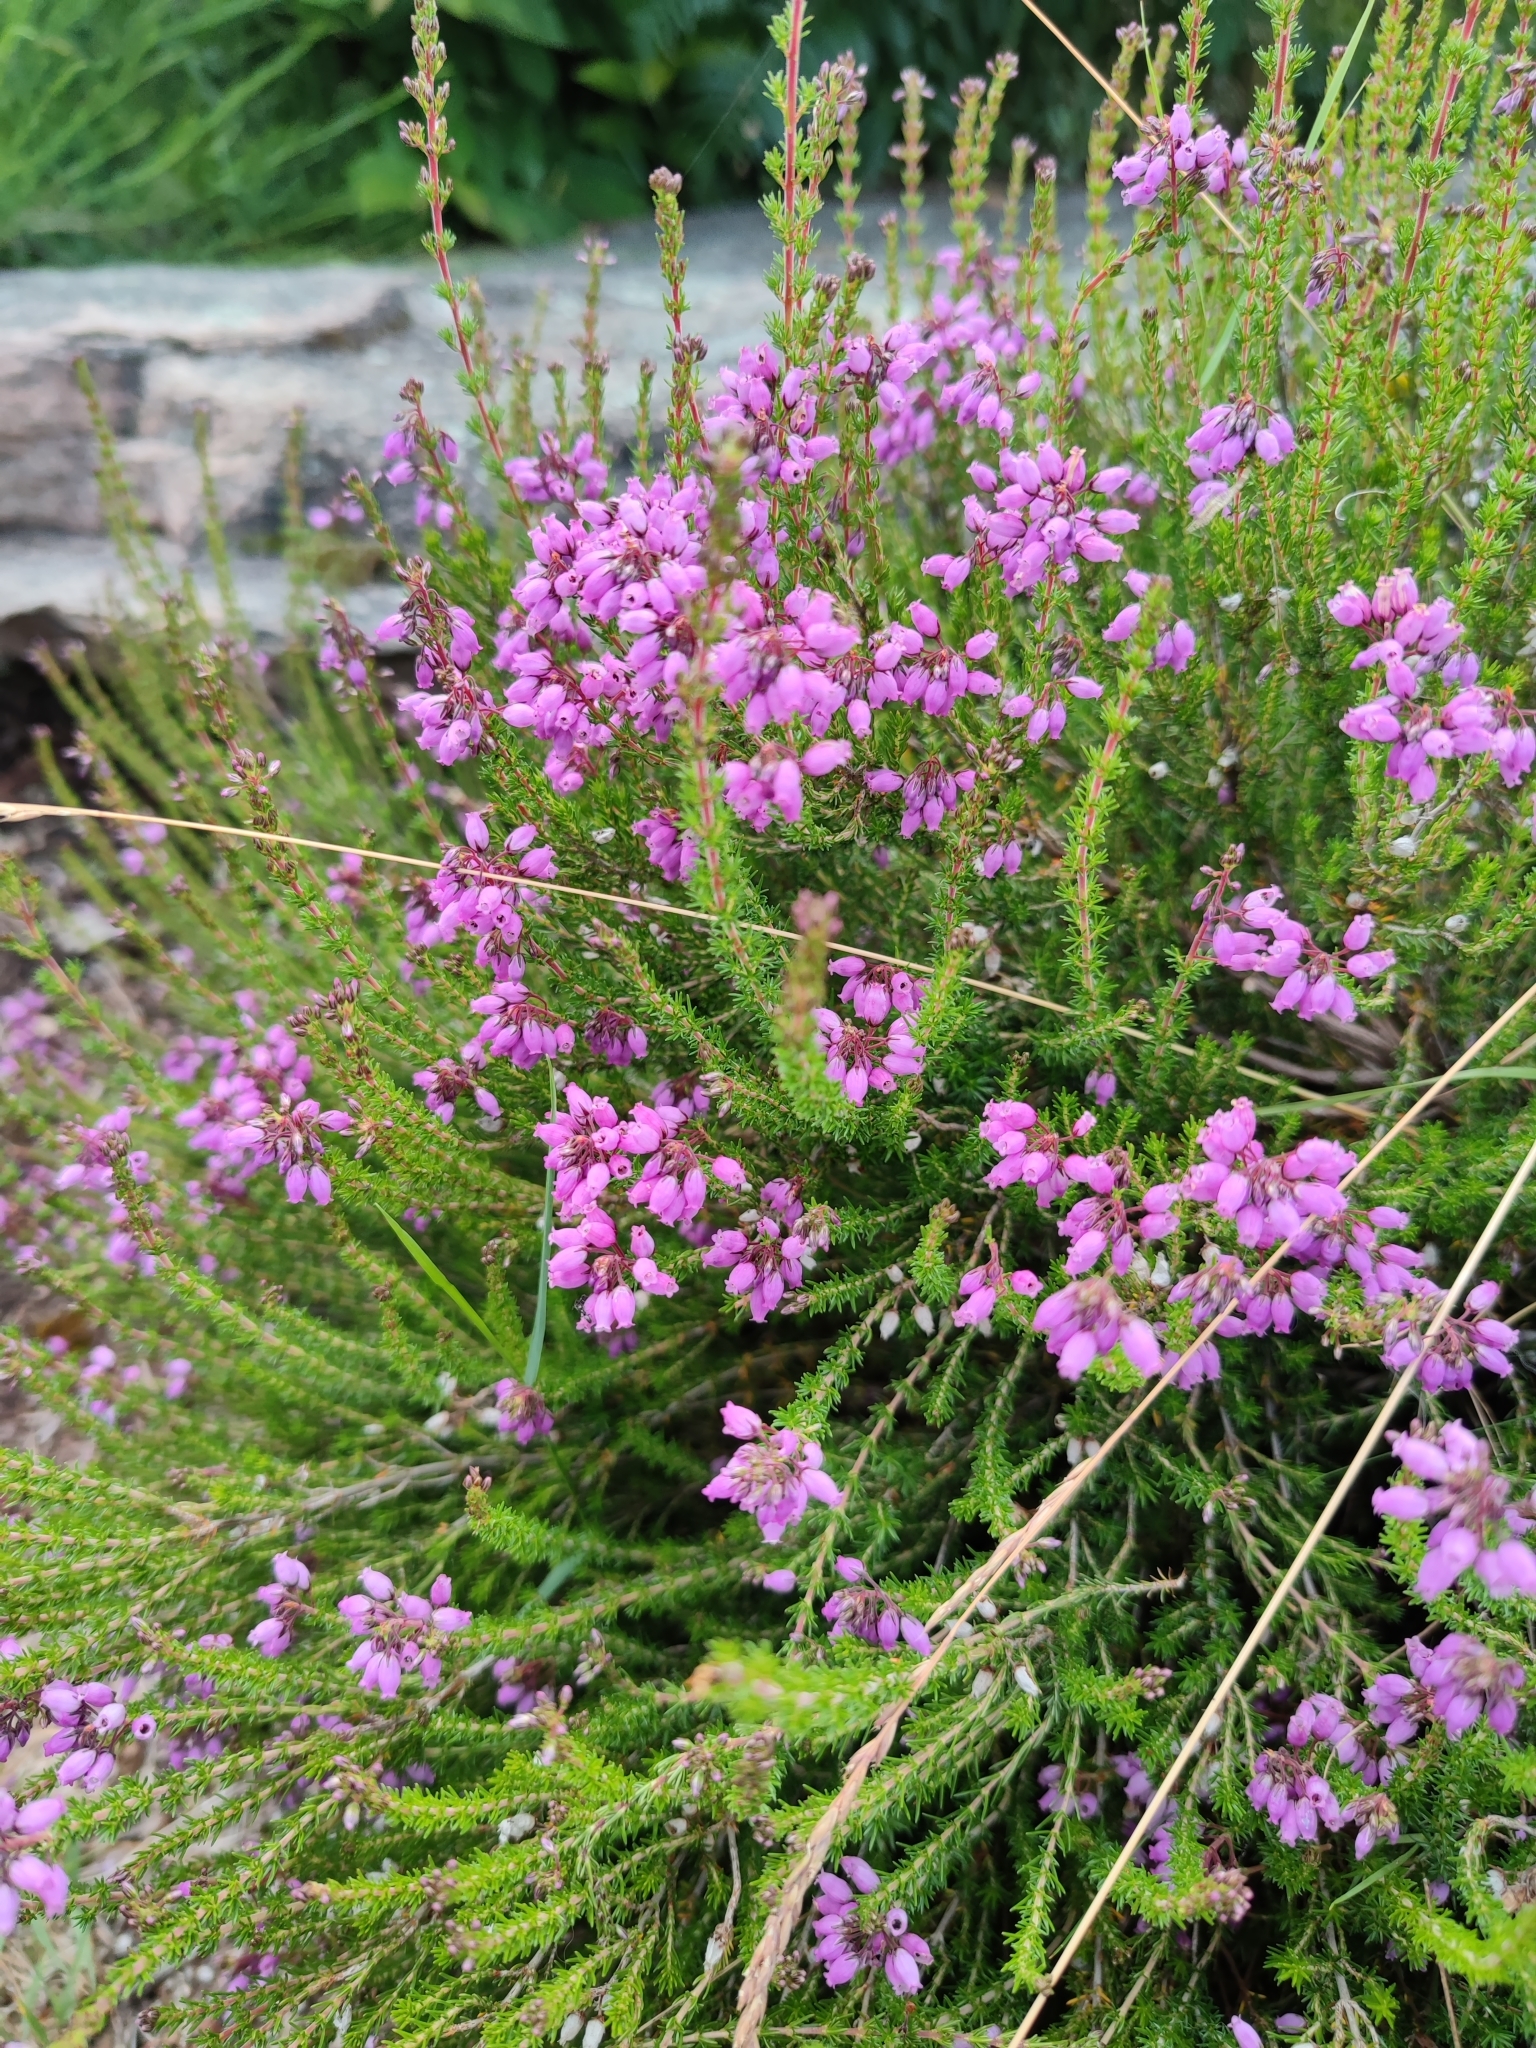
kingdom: Plantae
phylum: Tracheophyta
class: Magnoliopsida
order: Ericales
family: Ericaceae
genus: Erica
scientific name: Erica cinerea
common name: Bell heather
